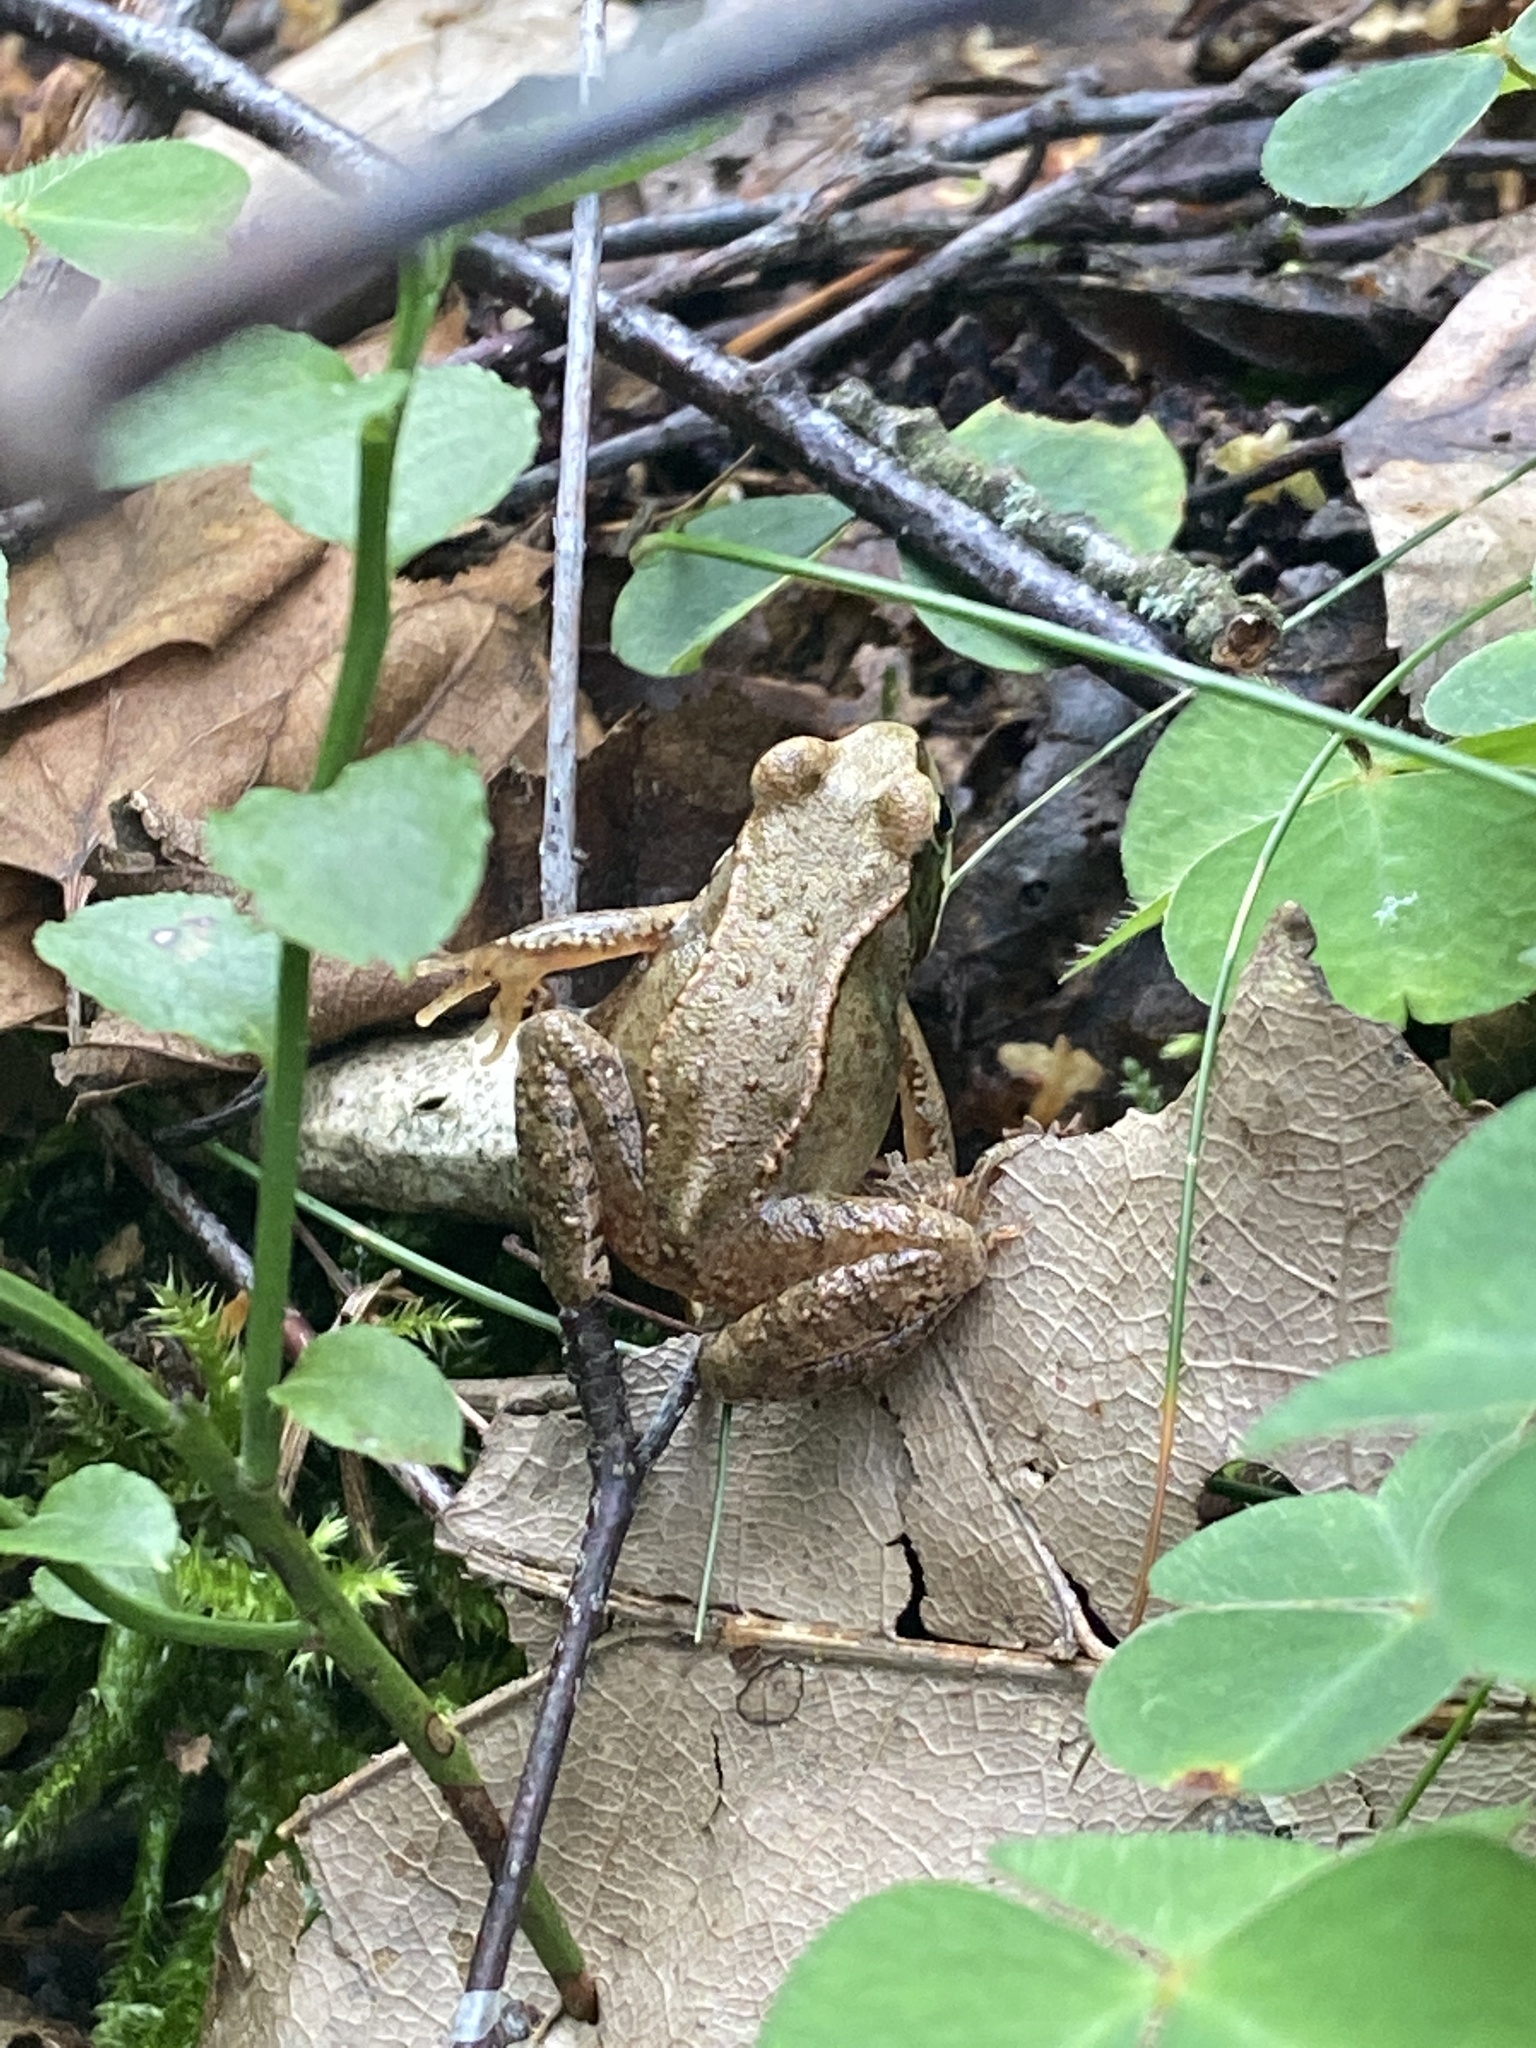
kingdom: Animalia
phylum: Chordata
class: Amphibia
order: Anura
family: Ranidae
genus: Rana
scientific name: Rana temporaria
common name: Common frog
